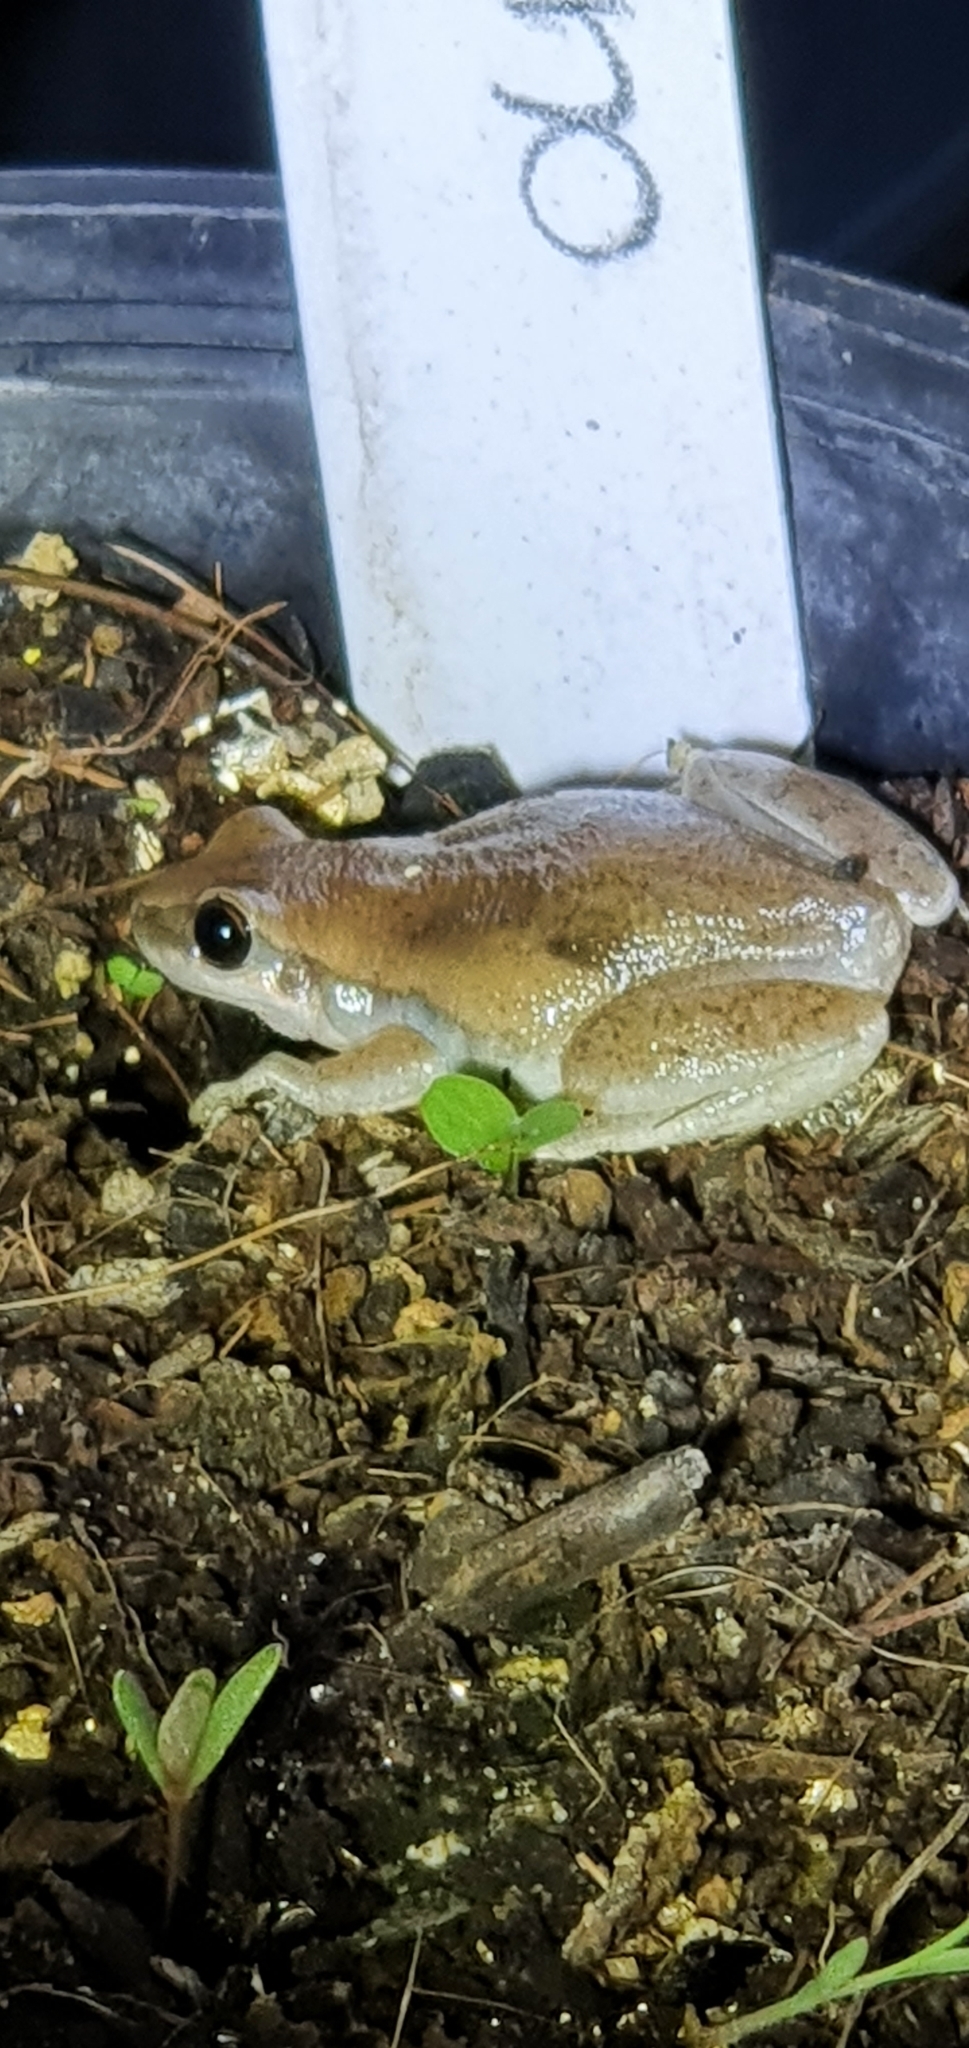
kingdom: Animalia
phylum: Chordata
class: Amphibia
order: Anura
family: Pelodryadidae
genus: Litoria
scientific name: Litoria rubella
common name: Desert tree frog
